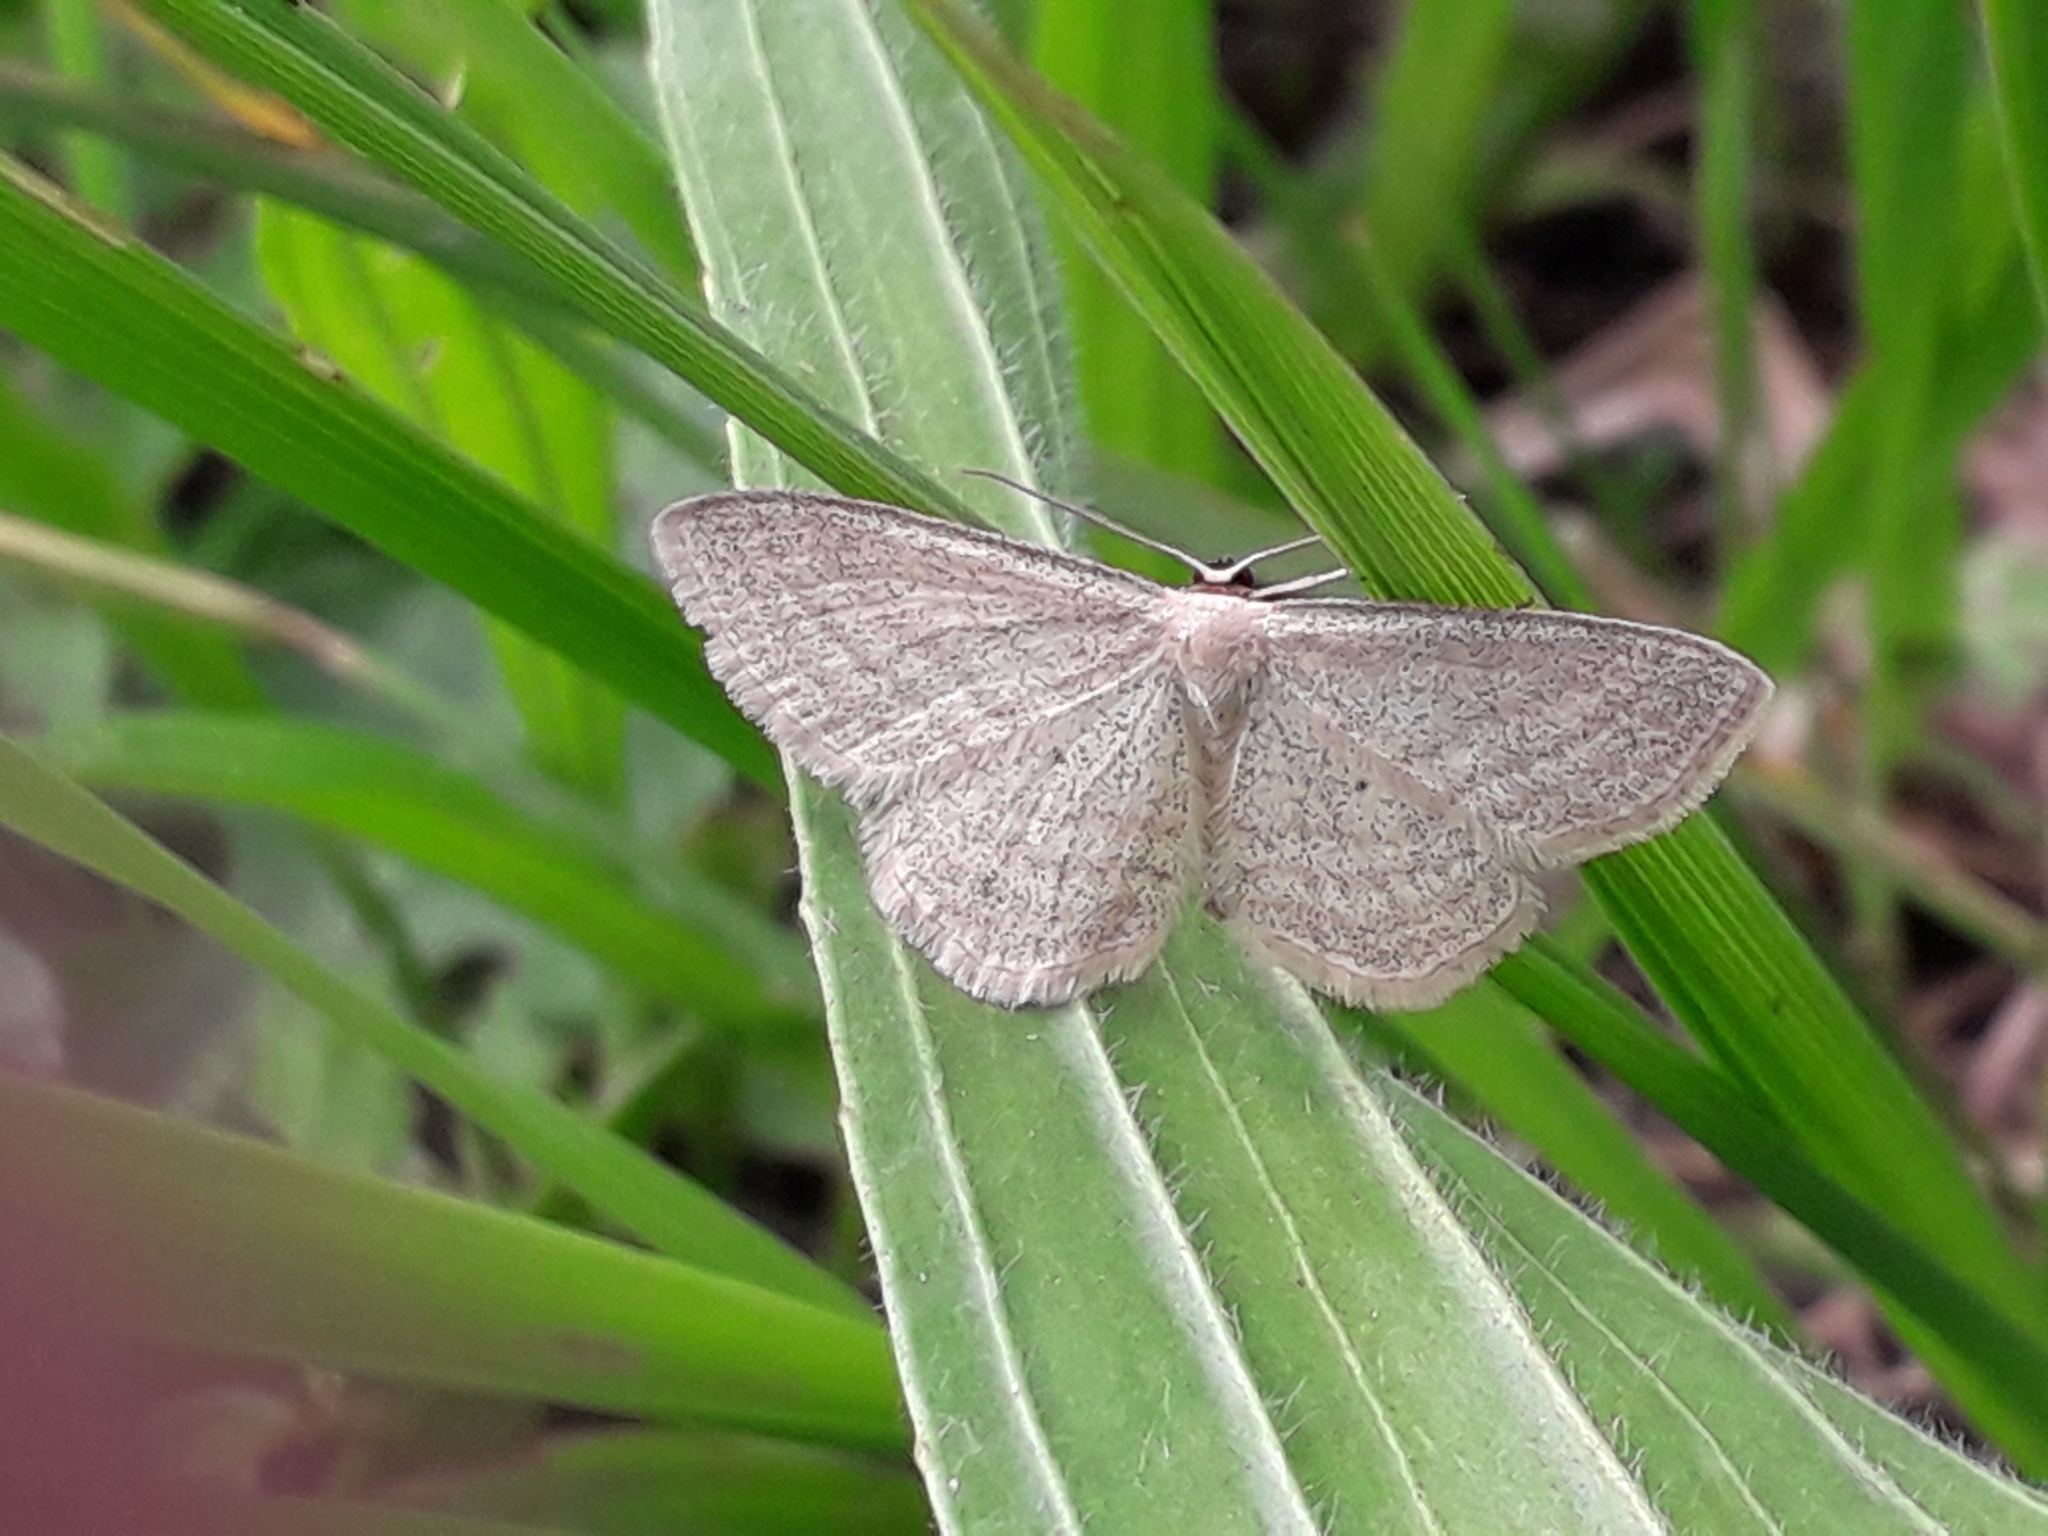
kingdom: Animalia
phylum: Arthropoda
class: Insecta
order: Lepidoptera
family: Geometridae
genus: Scopula
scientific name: Scopula virgulata
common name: Streaked wave
